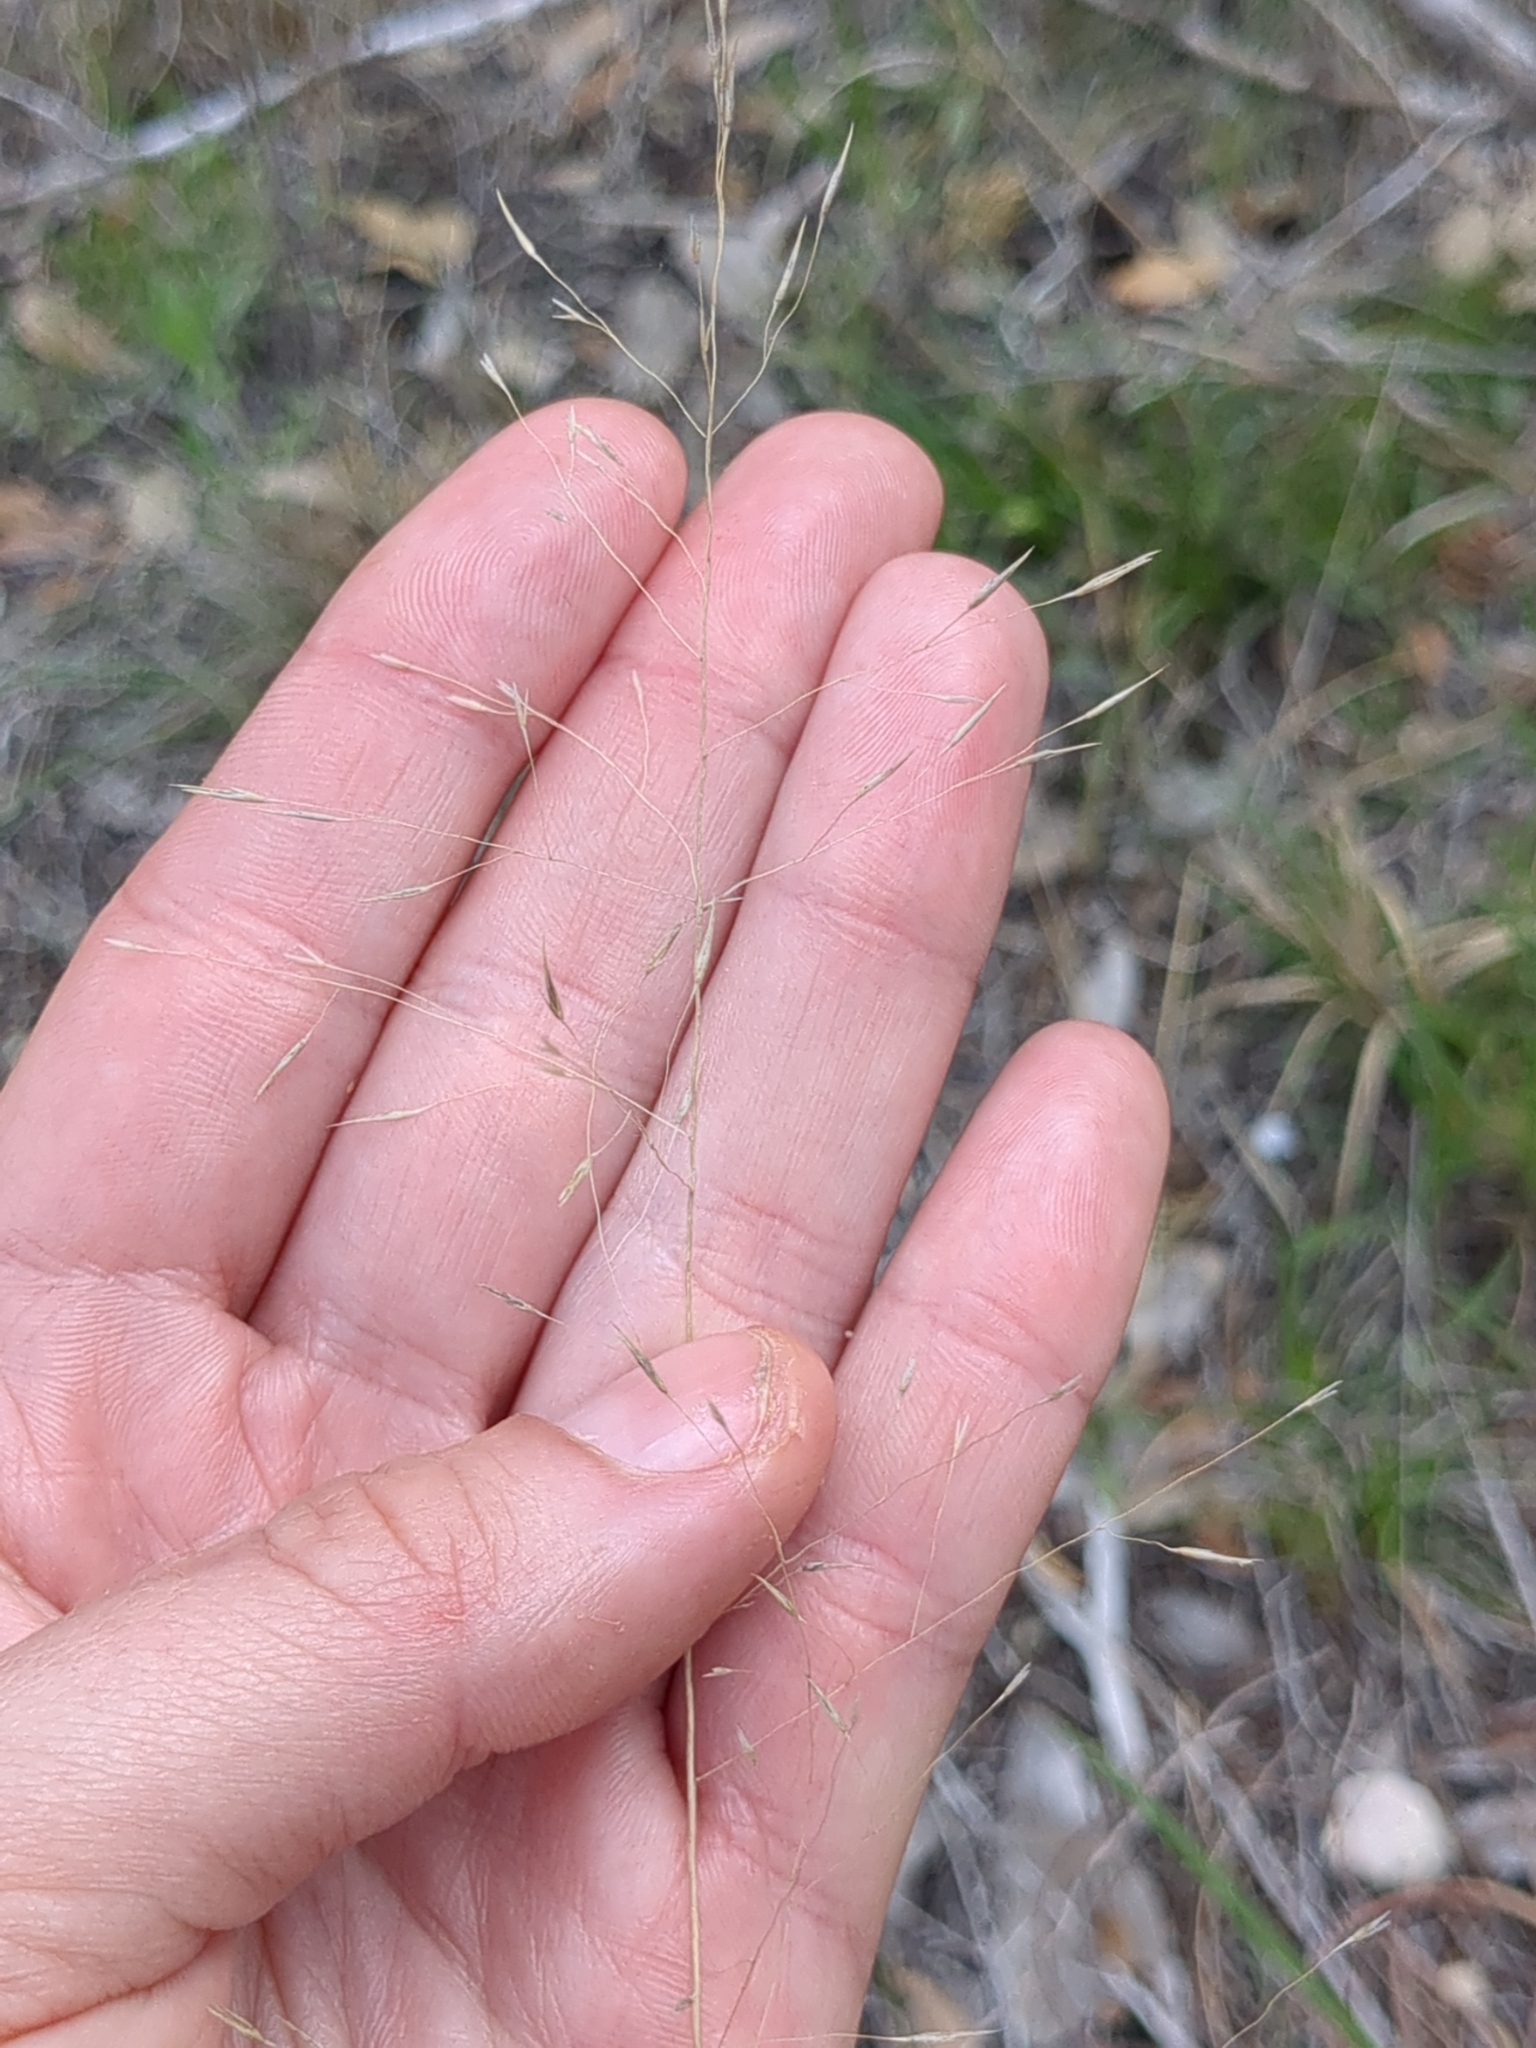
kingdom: Plantae
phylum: Tracheophyta
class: Liliopsida
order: Poales
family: Poaceae
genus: Muhlenbergia
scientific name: Muhlenbergia reverchonii
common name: Seep muhly
